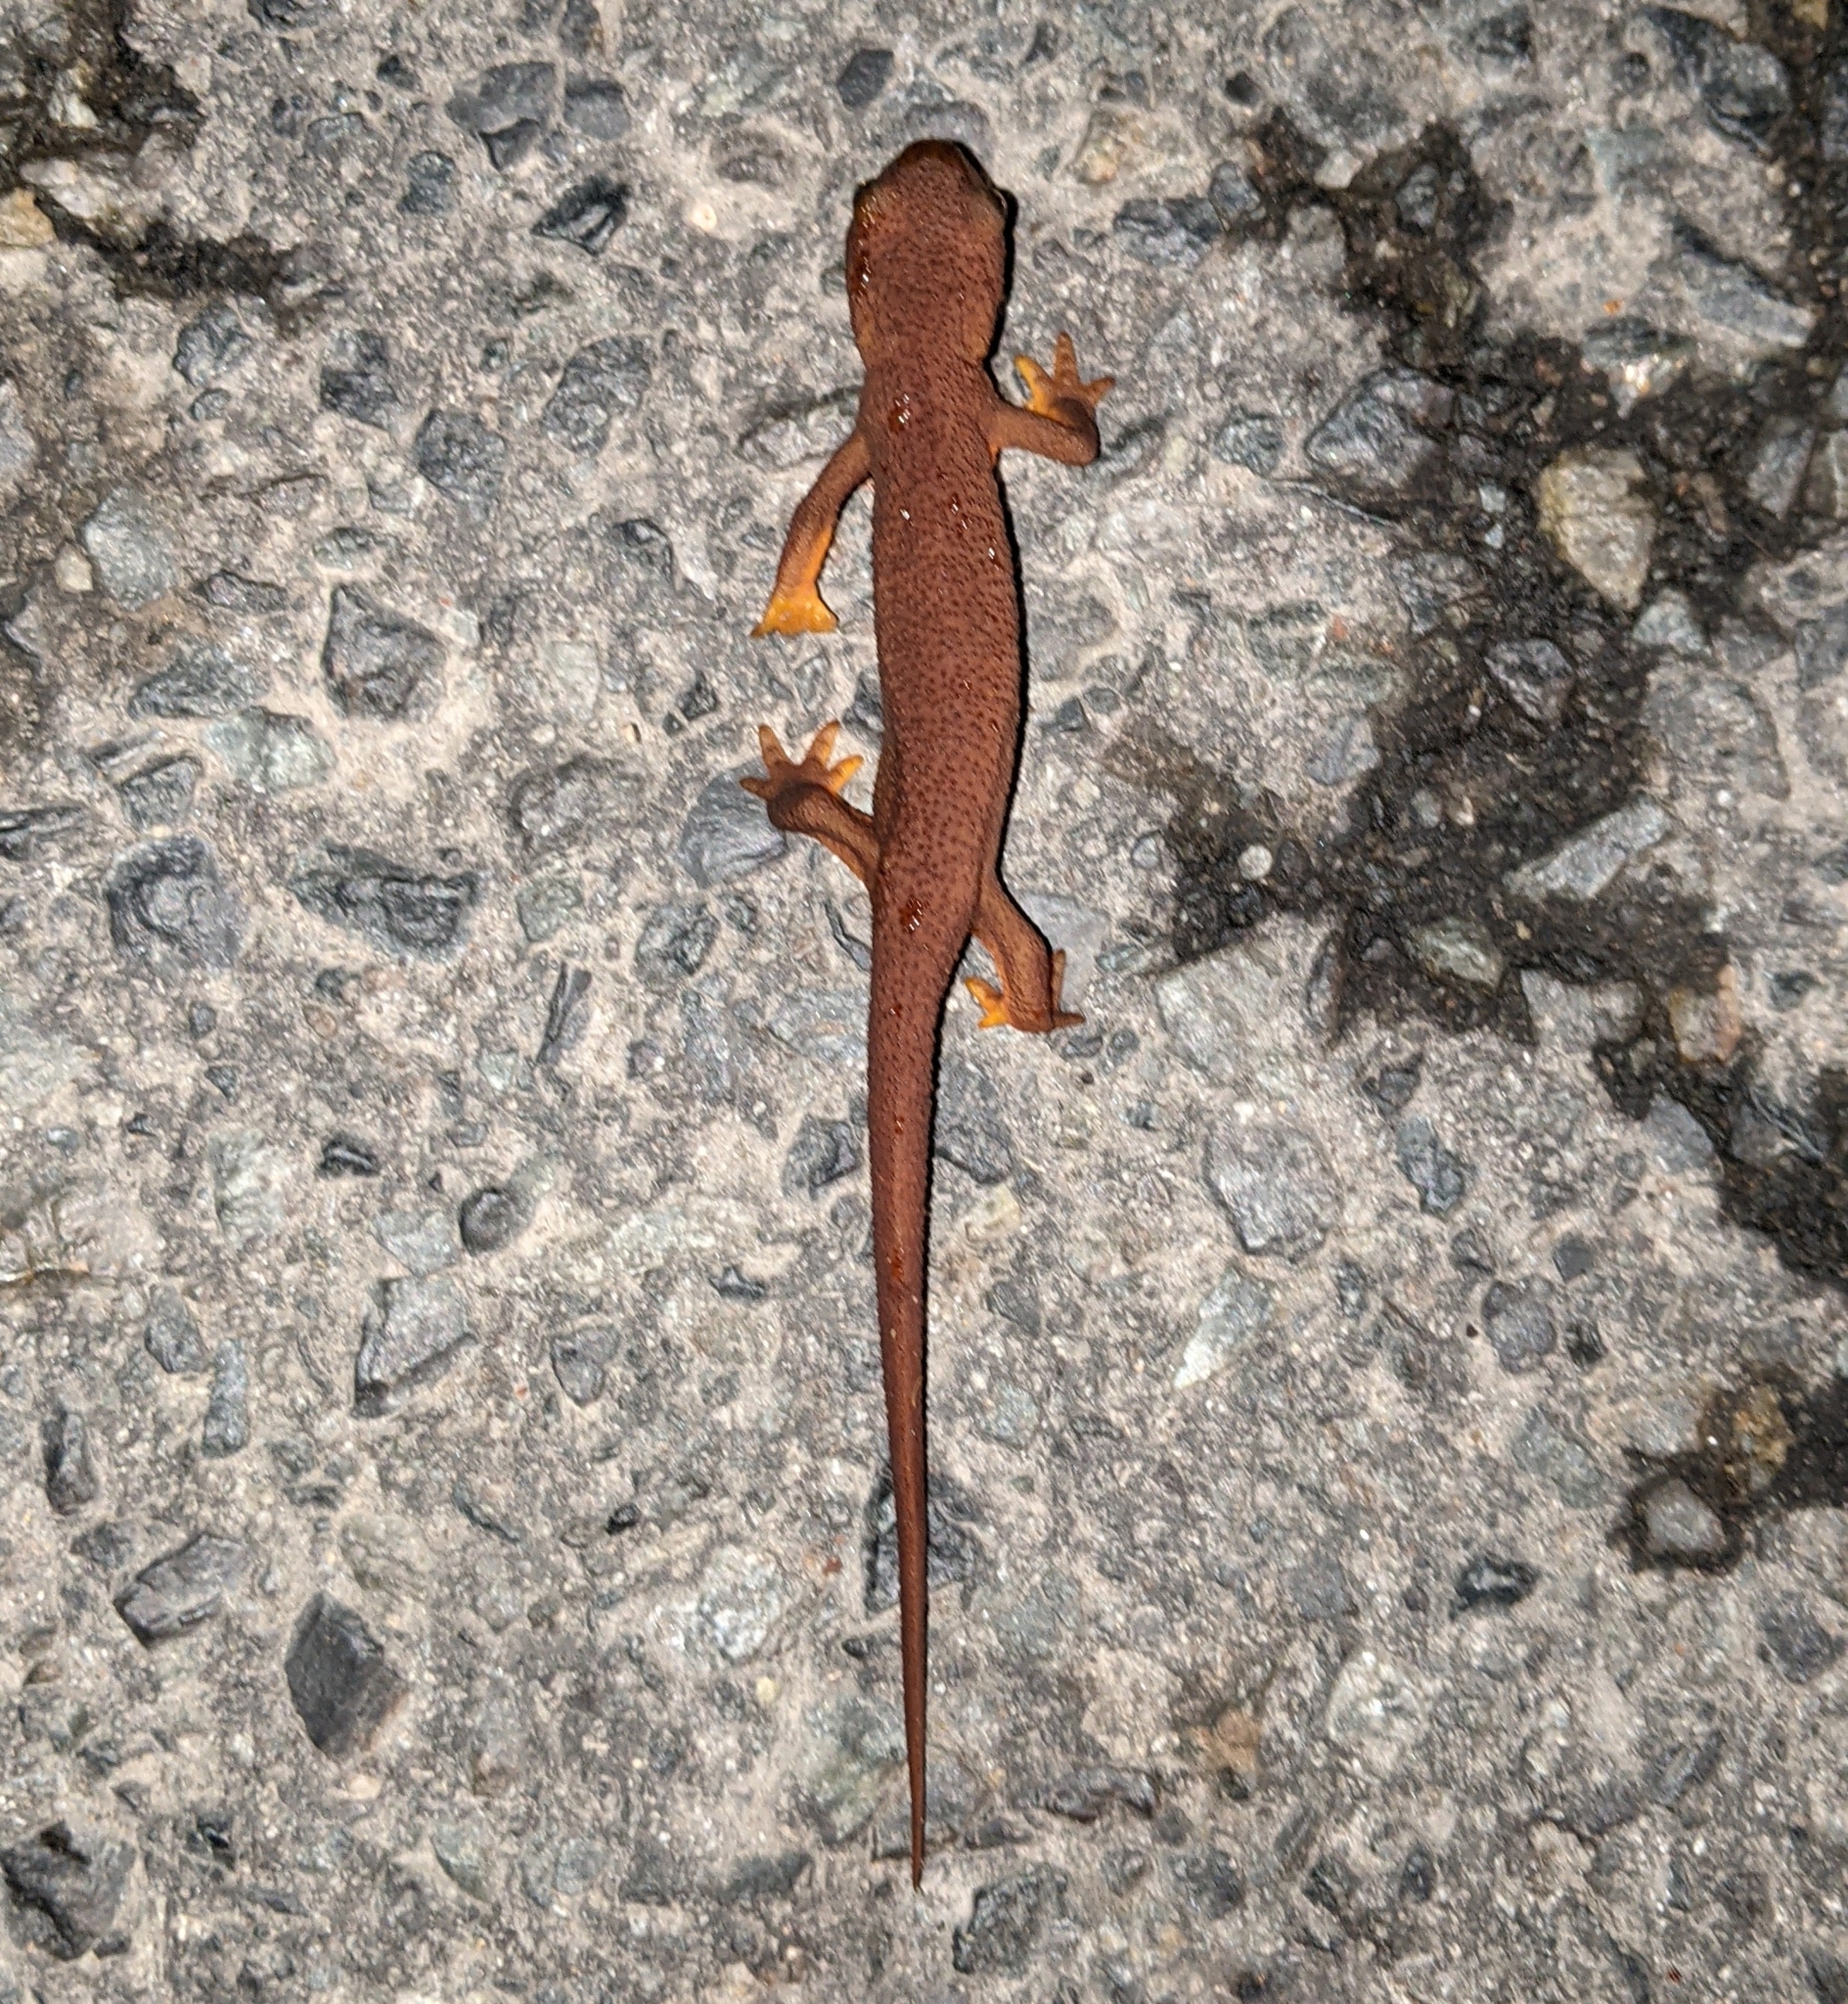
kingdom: Animalia
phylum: Chordata
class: Amphibia
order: Caudata
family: Salamandridae
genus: Taricha
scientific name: Taricha granulosa
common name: Roughskin newt
